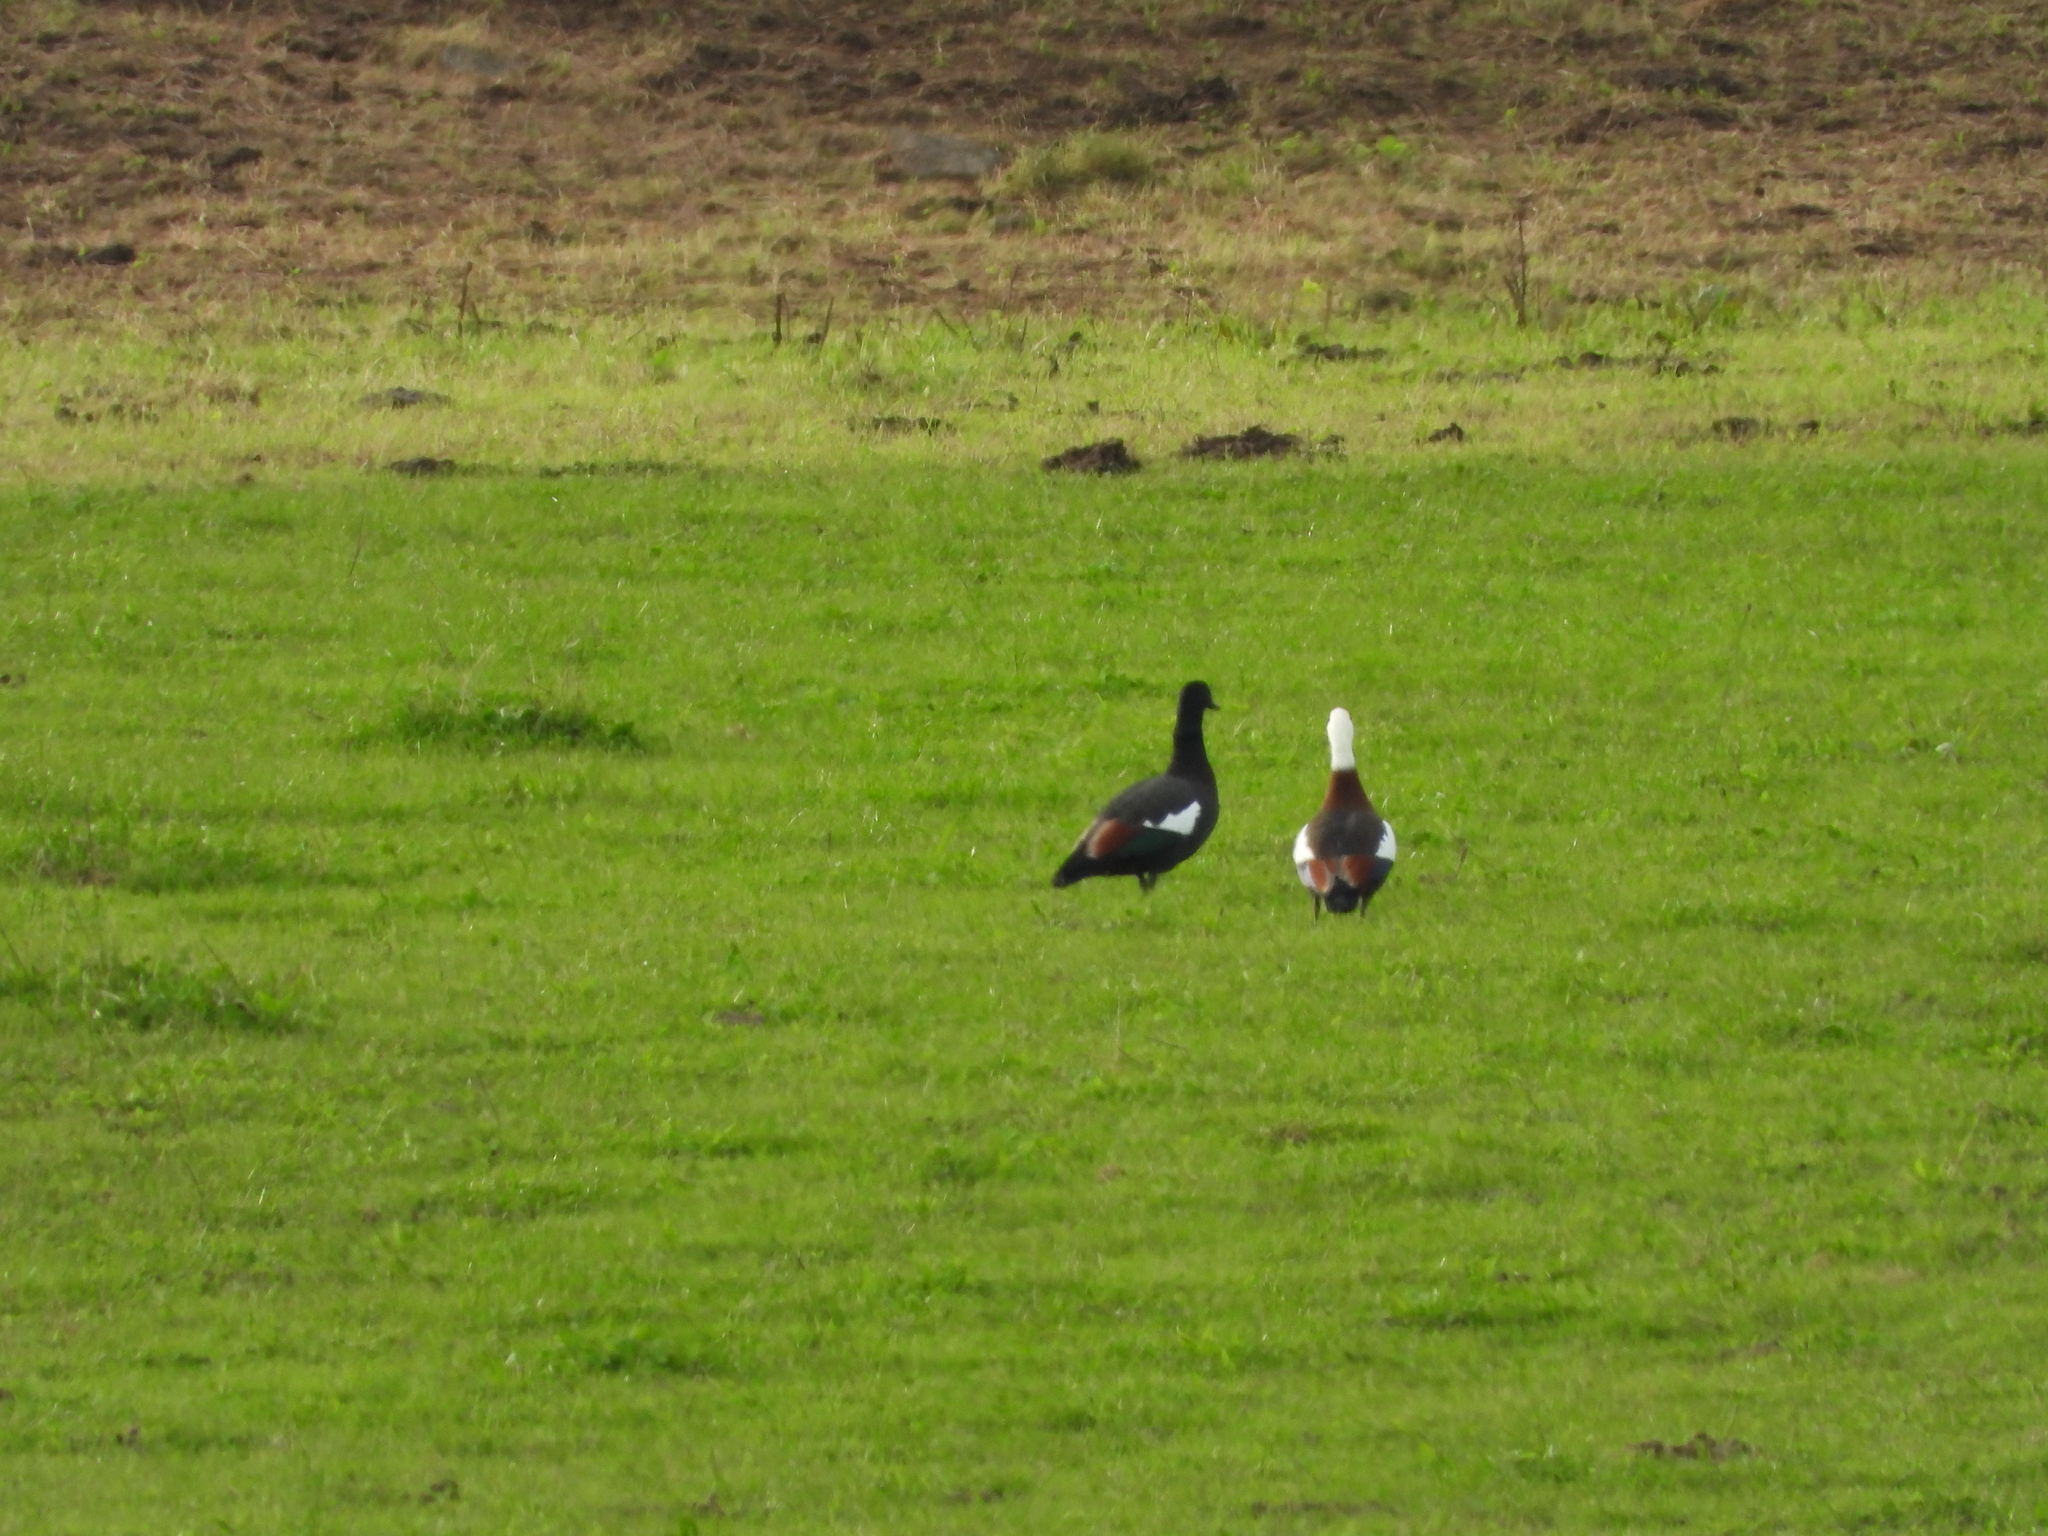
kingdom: Animalia
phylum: Chordata
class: Aves
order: Anseriformes
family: Anatidae
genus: Tadorna
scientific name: Tadorna variegata
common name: Paradise shelduck
